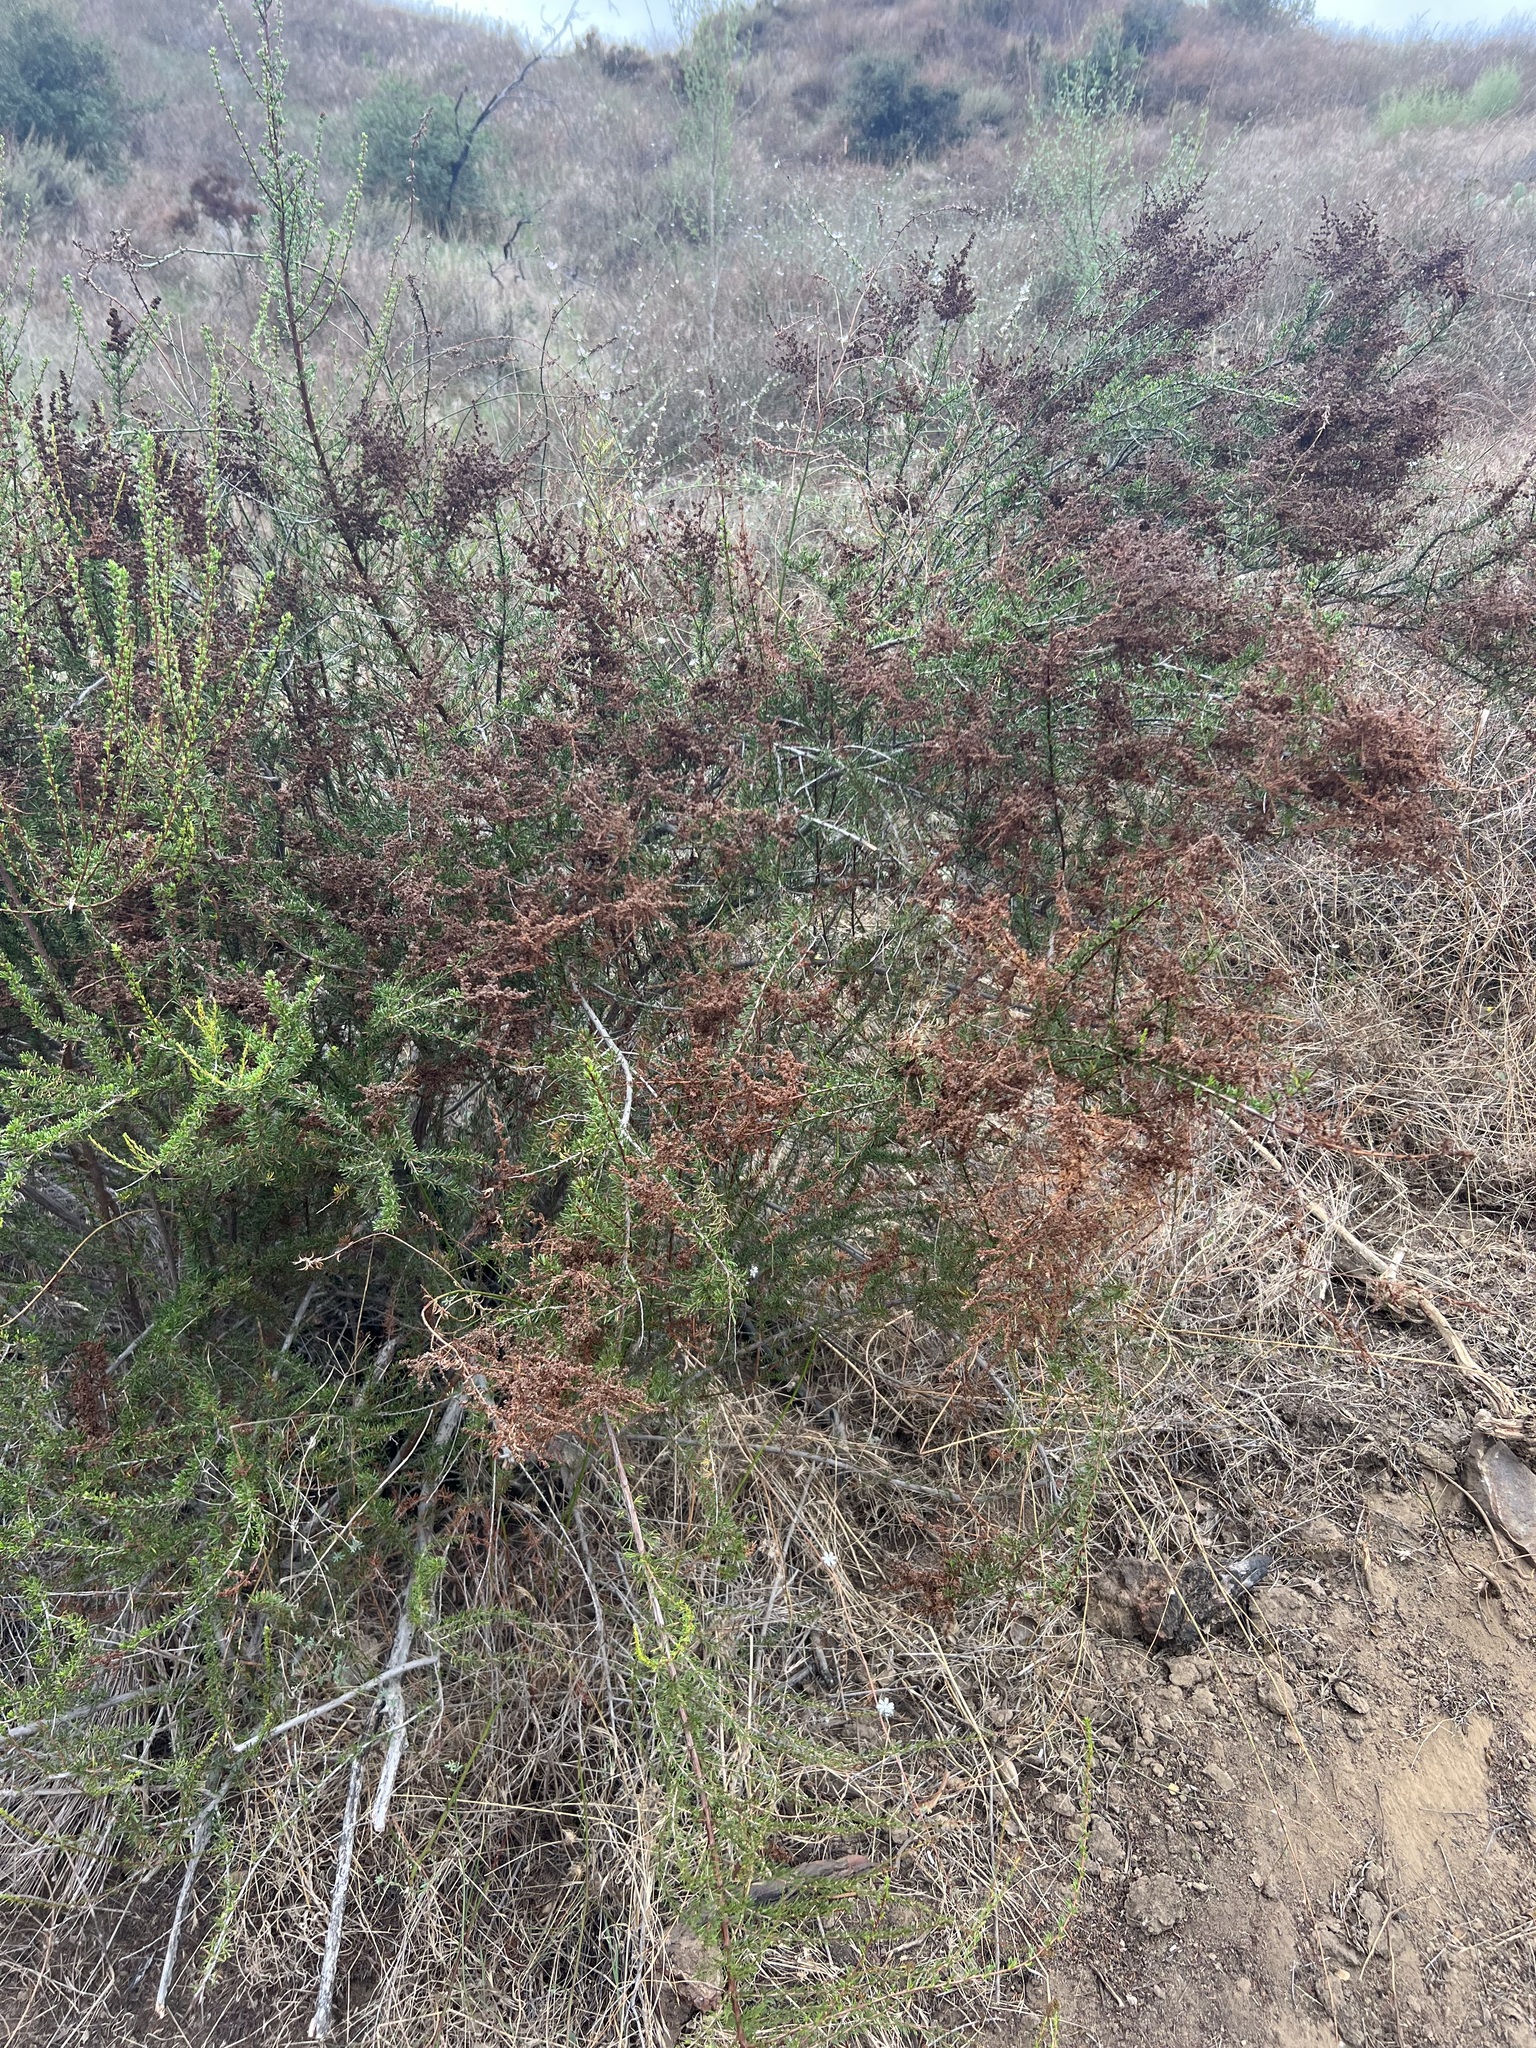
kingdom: Plantae
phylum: Tracheophyta
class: Magnoliopsida
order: Rosales
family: Rosaceae
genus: Adenostoma
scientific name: Adenostoma fasciculatum
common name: Chamise
